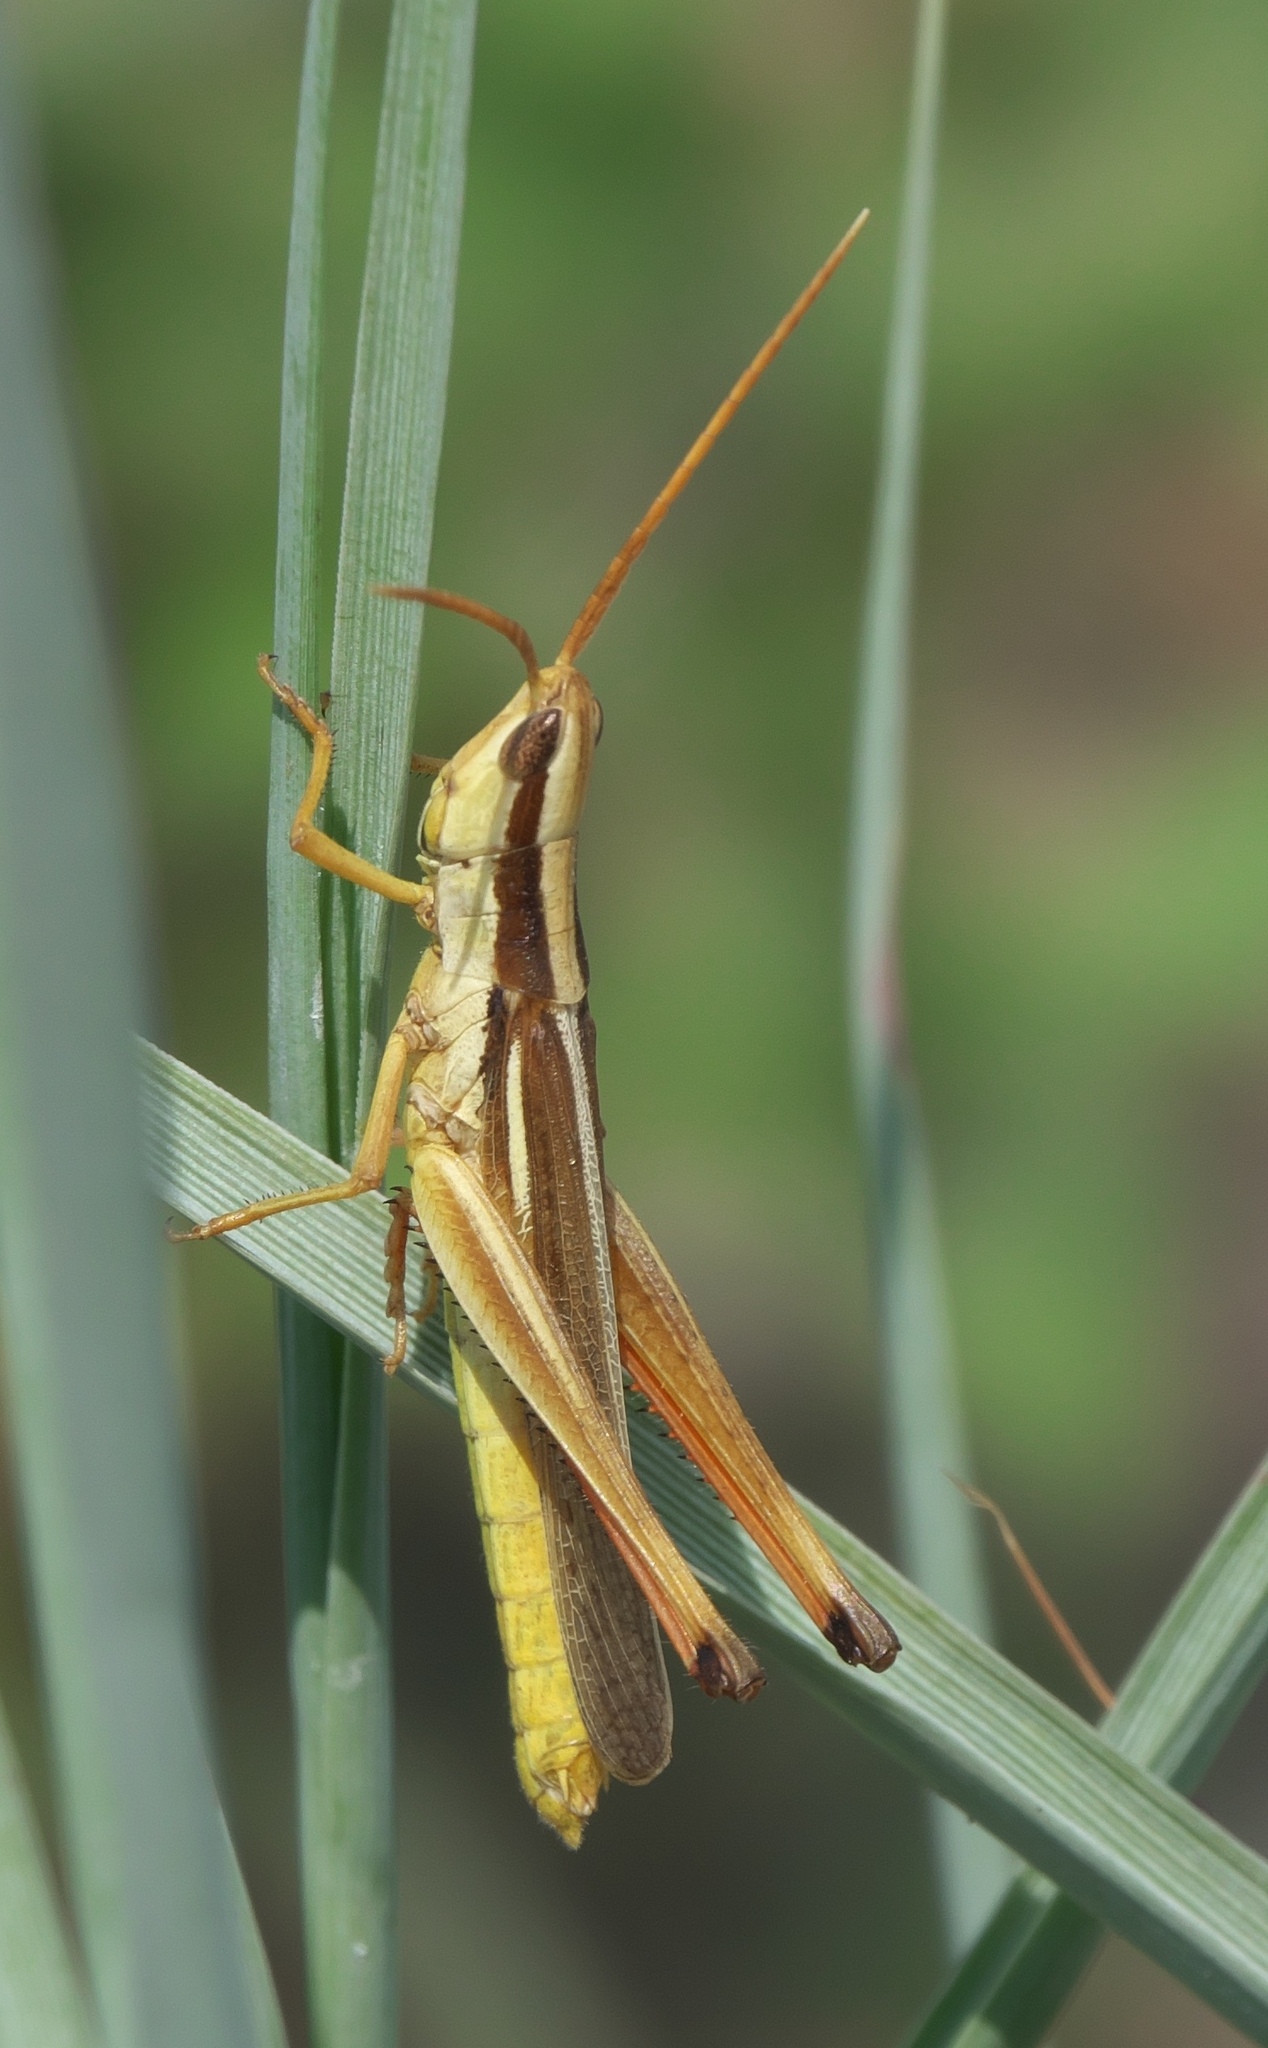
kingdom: Animalia
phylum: Arthropoda
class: Insecta
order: Orthoptera
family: Acrididae
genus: Mermiria
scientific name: Mermiria bivittata
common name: Two-striped mermiria grasshopper
